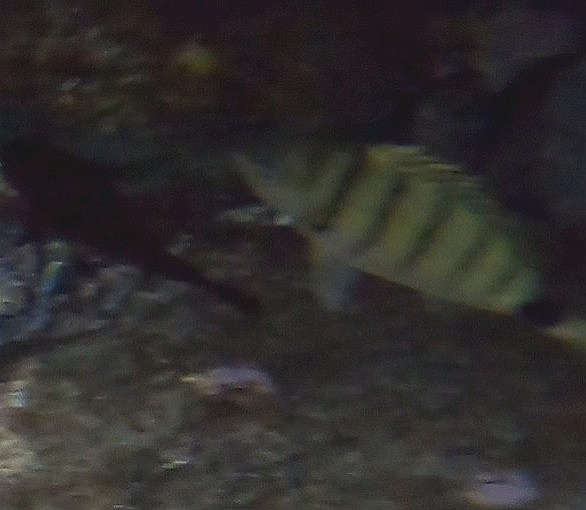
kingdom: Animalia
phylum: Chordata
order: Perciformes
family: Sparidae
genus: Diplodus
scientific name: Diplodus cadenati
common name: Moroccan white seabream
